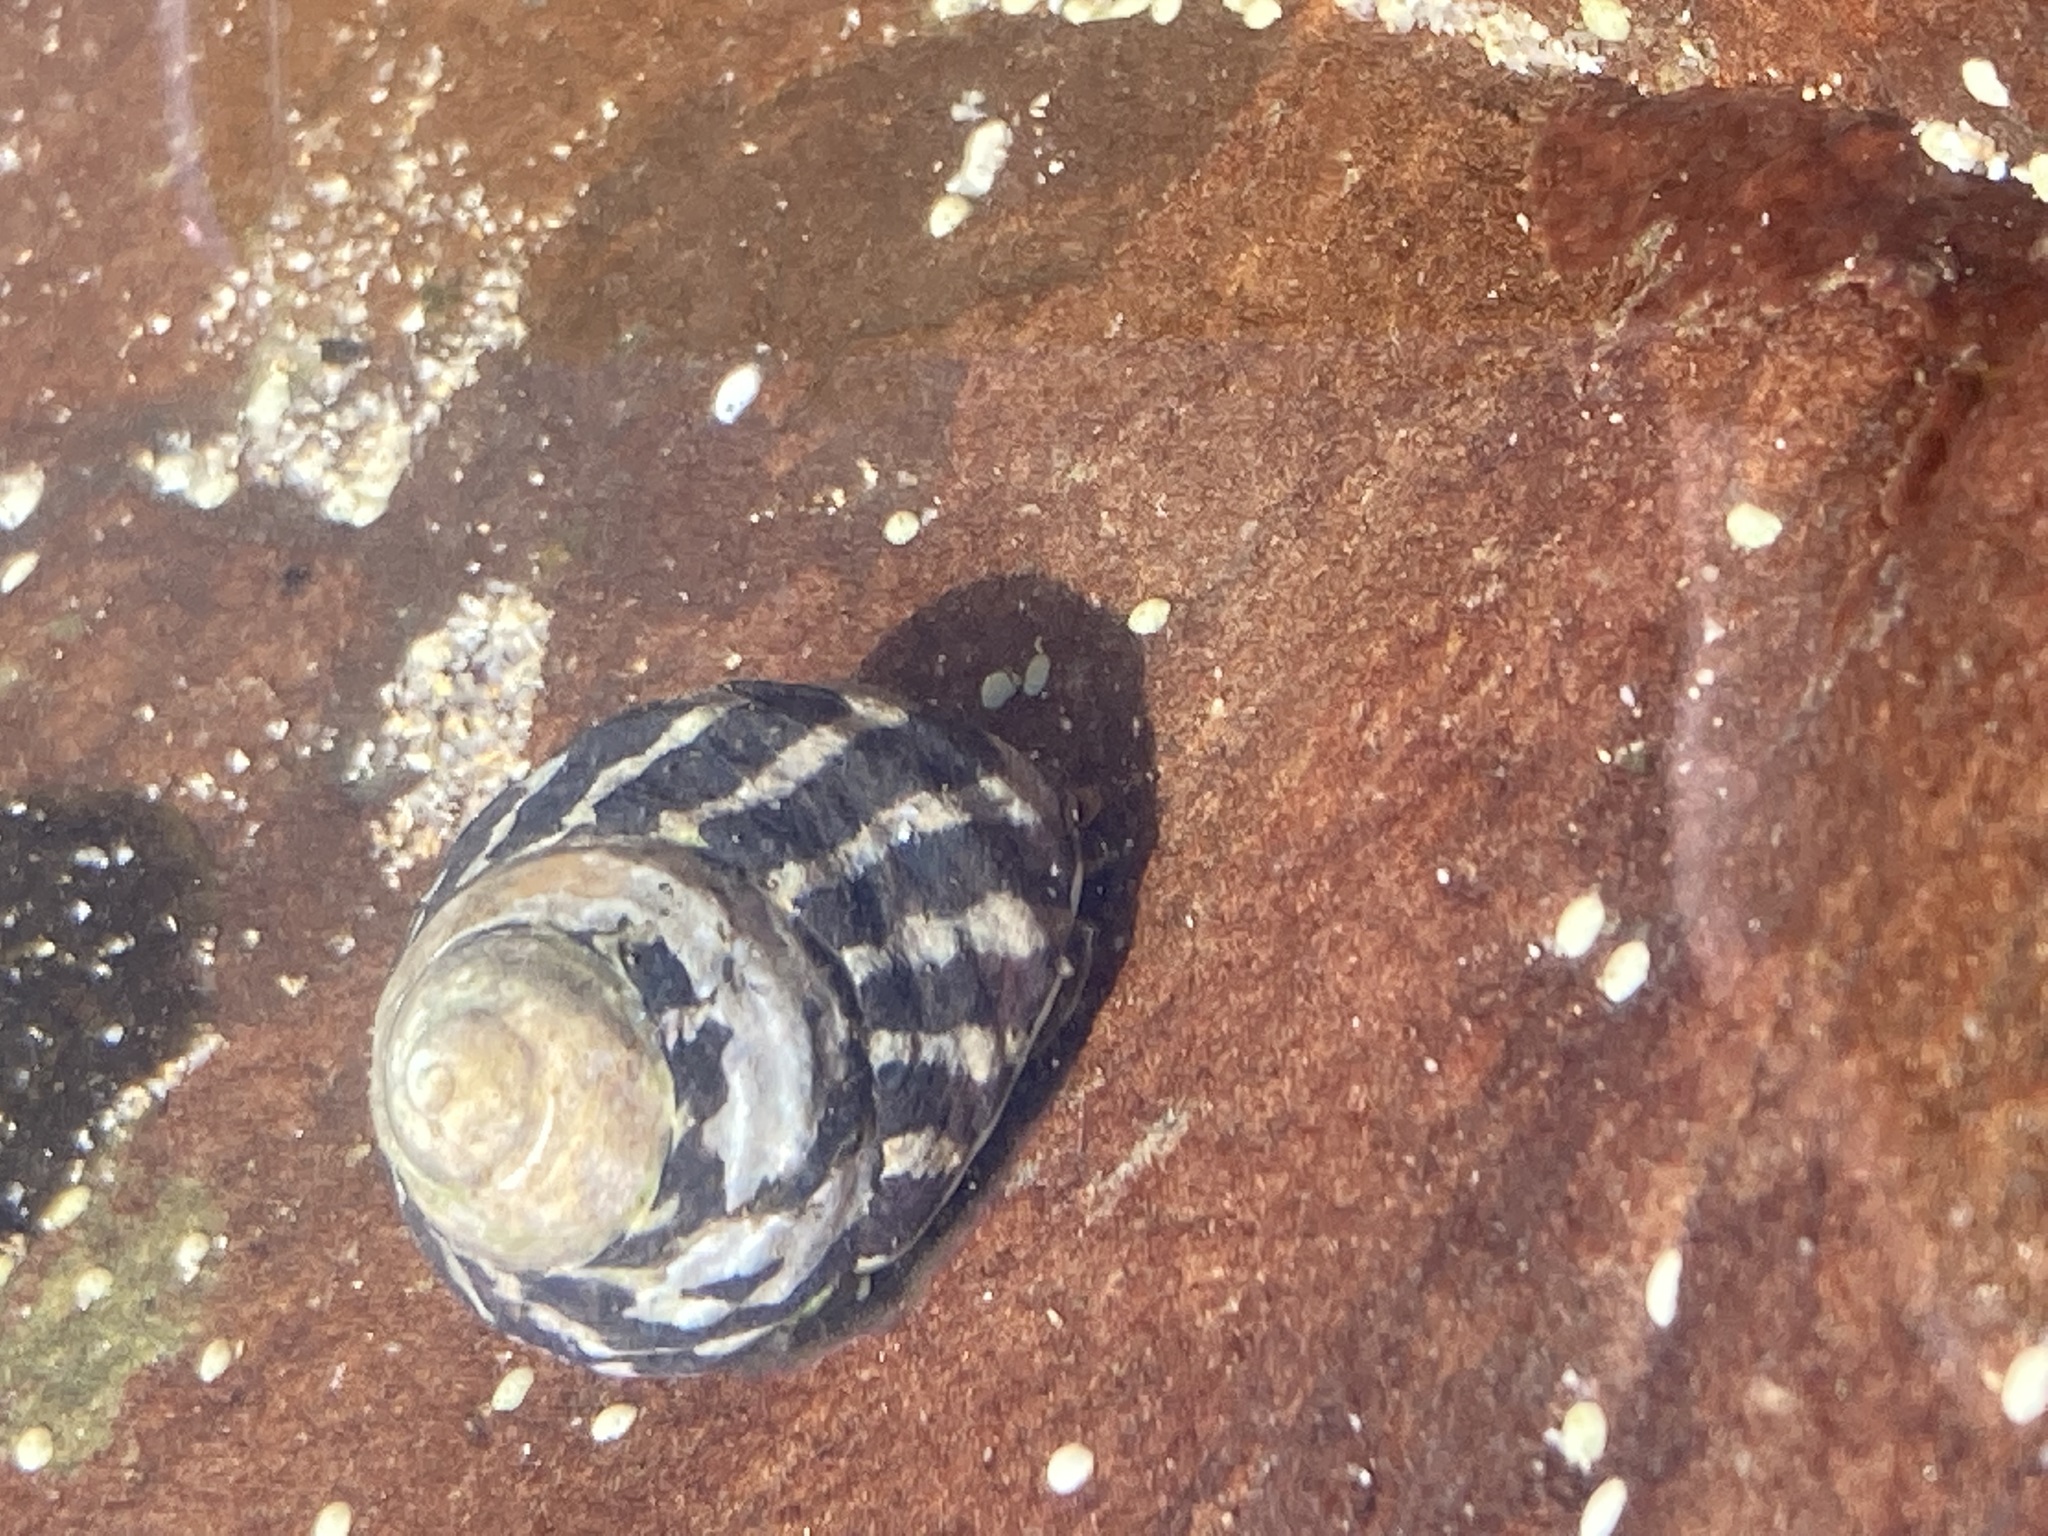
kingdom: Animalia
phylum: Mollusca
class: Gastropoda
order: Trochida
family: Trochidae
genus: Austrocochlea
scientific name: Austrocochlea porcata
